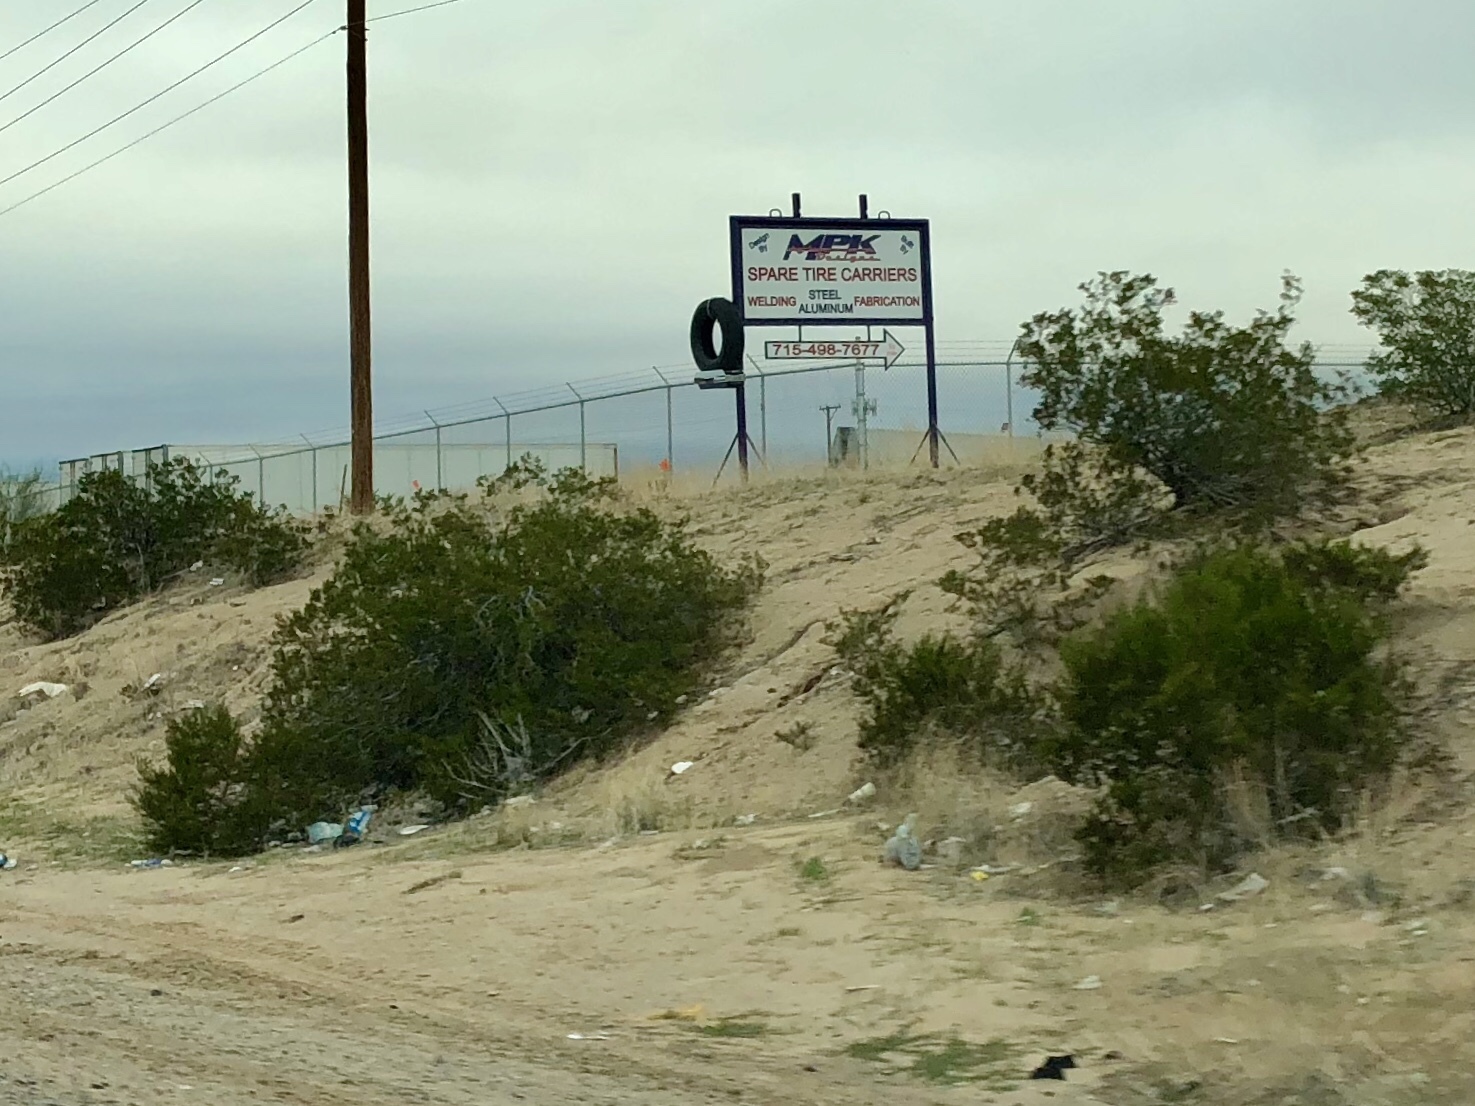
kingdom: Plantae
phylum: Tracheophyta
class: Magnoliopsida
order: Zygophyllales
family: Zygophyllaceae
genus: Larrea
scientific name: Larrea tridentata
